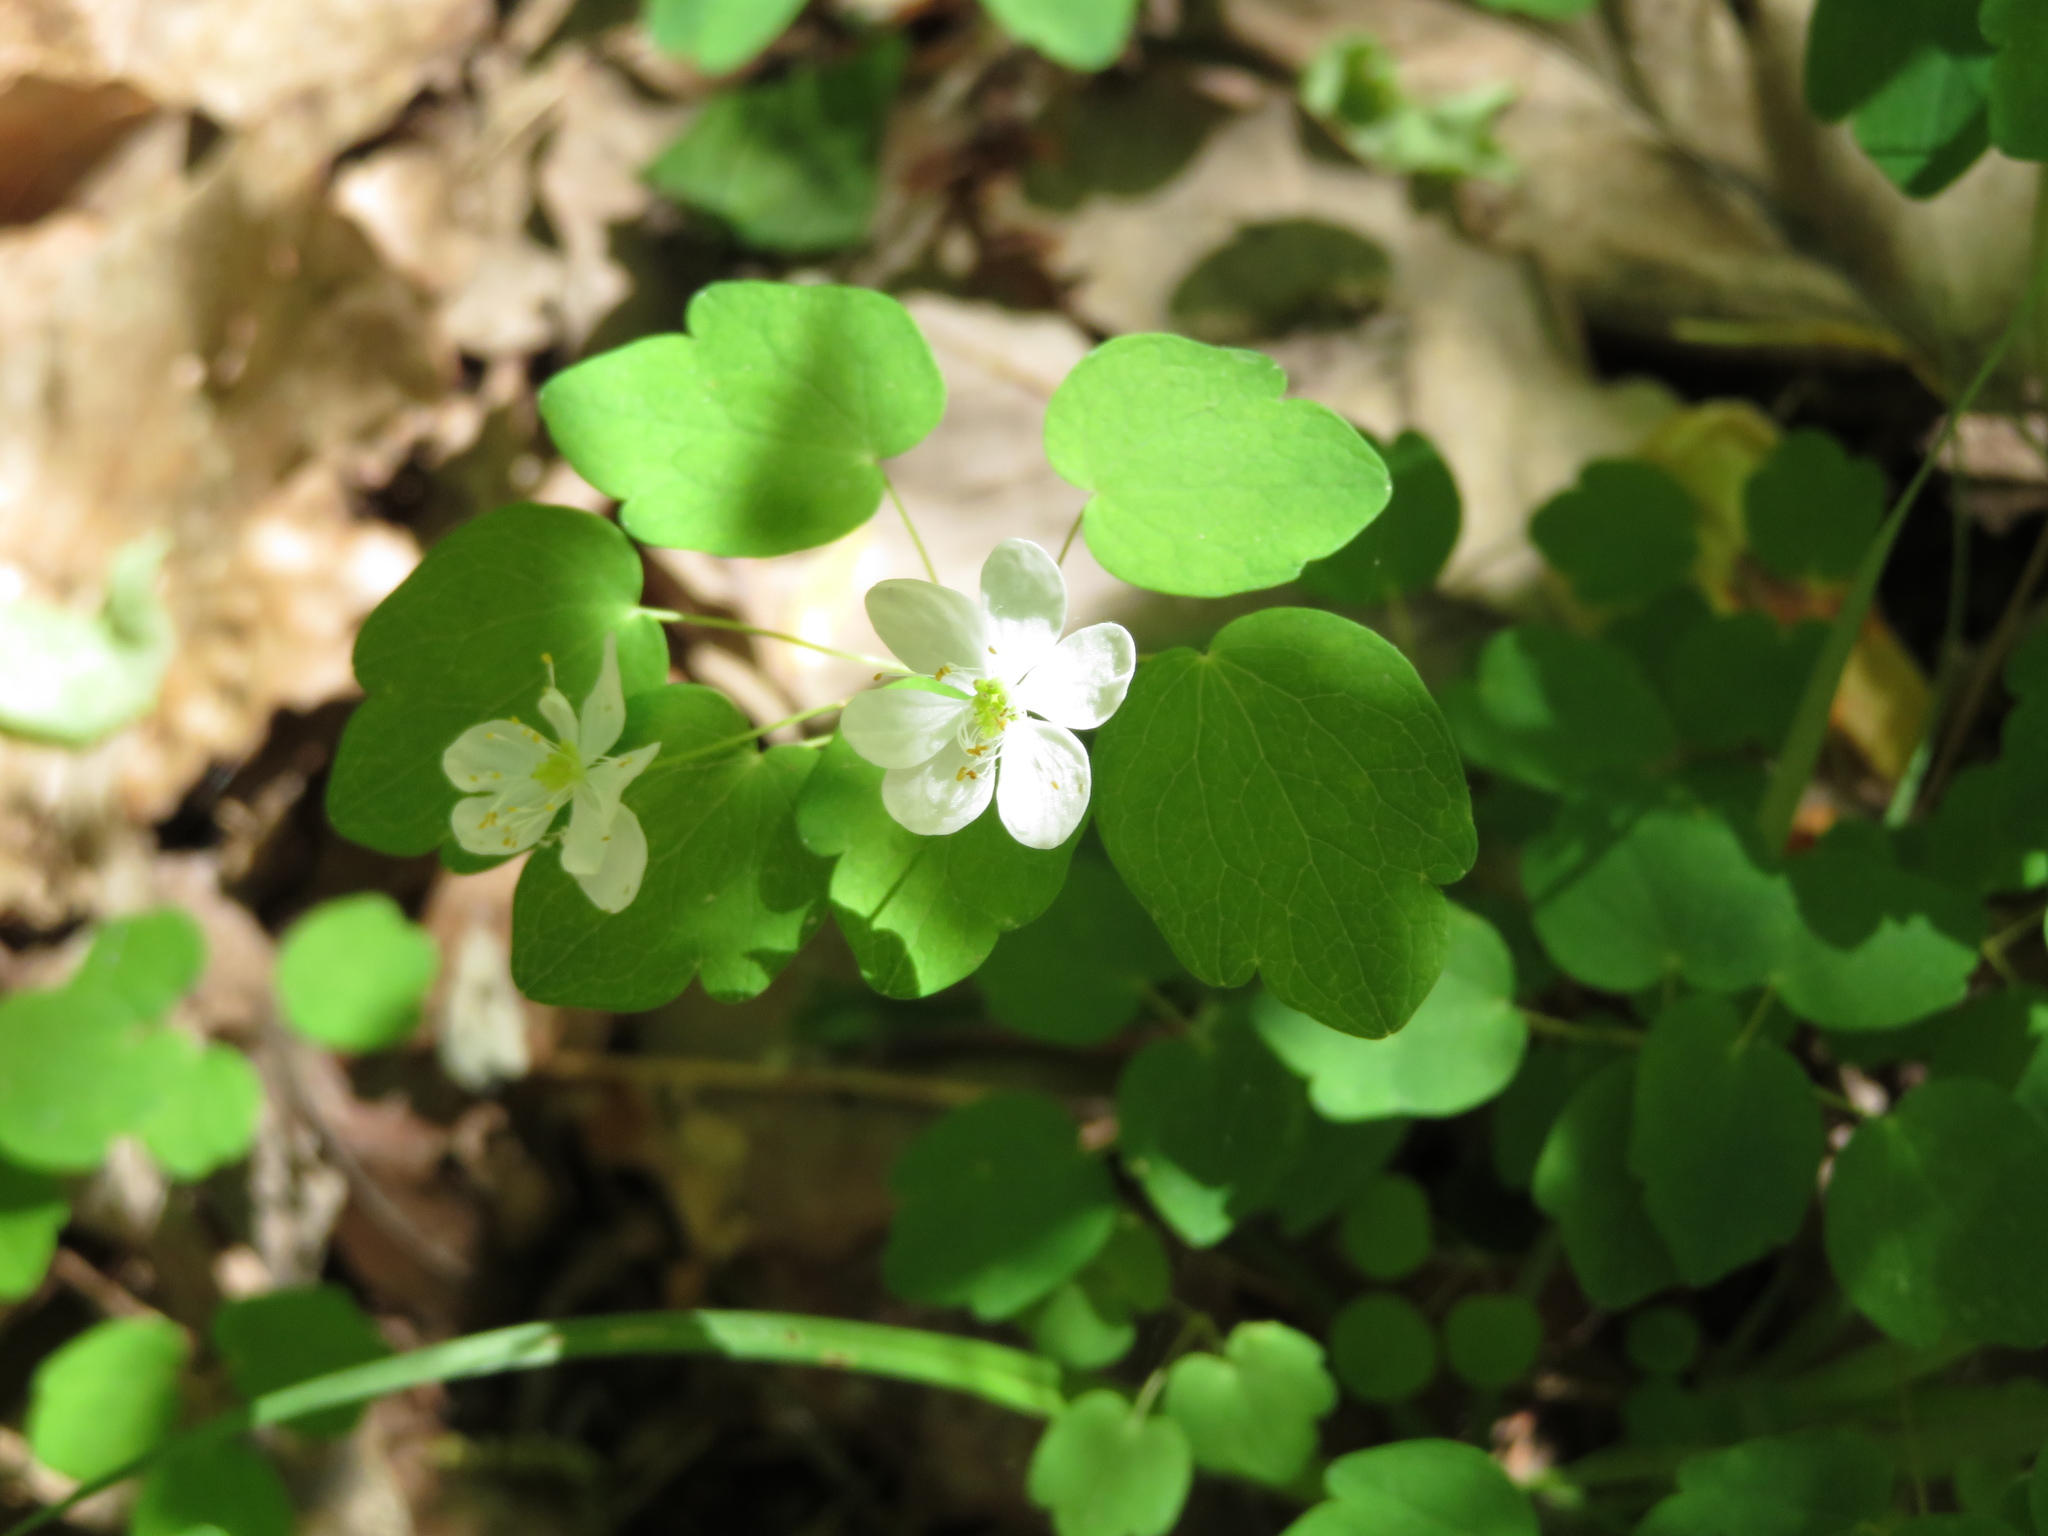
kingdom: Plantae
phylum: Tracheophyta
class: Magnoliopsida
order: Ranunculales
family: Ranunculaceae
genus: Thalictrum
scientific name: Thalictrum thalictroides
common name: Rue-anemone
